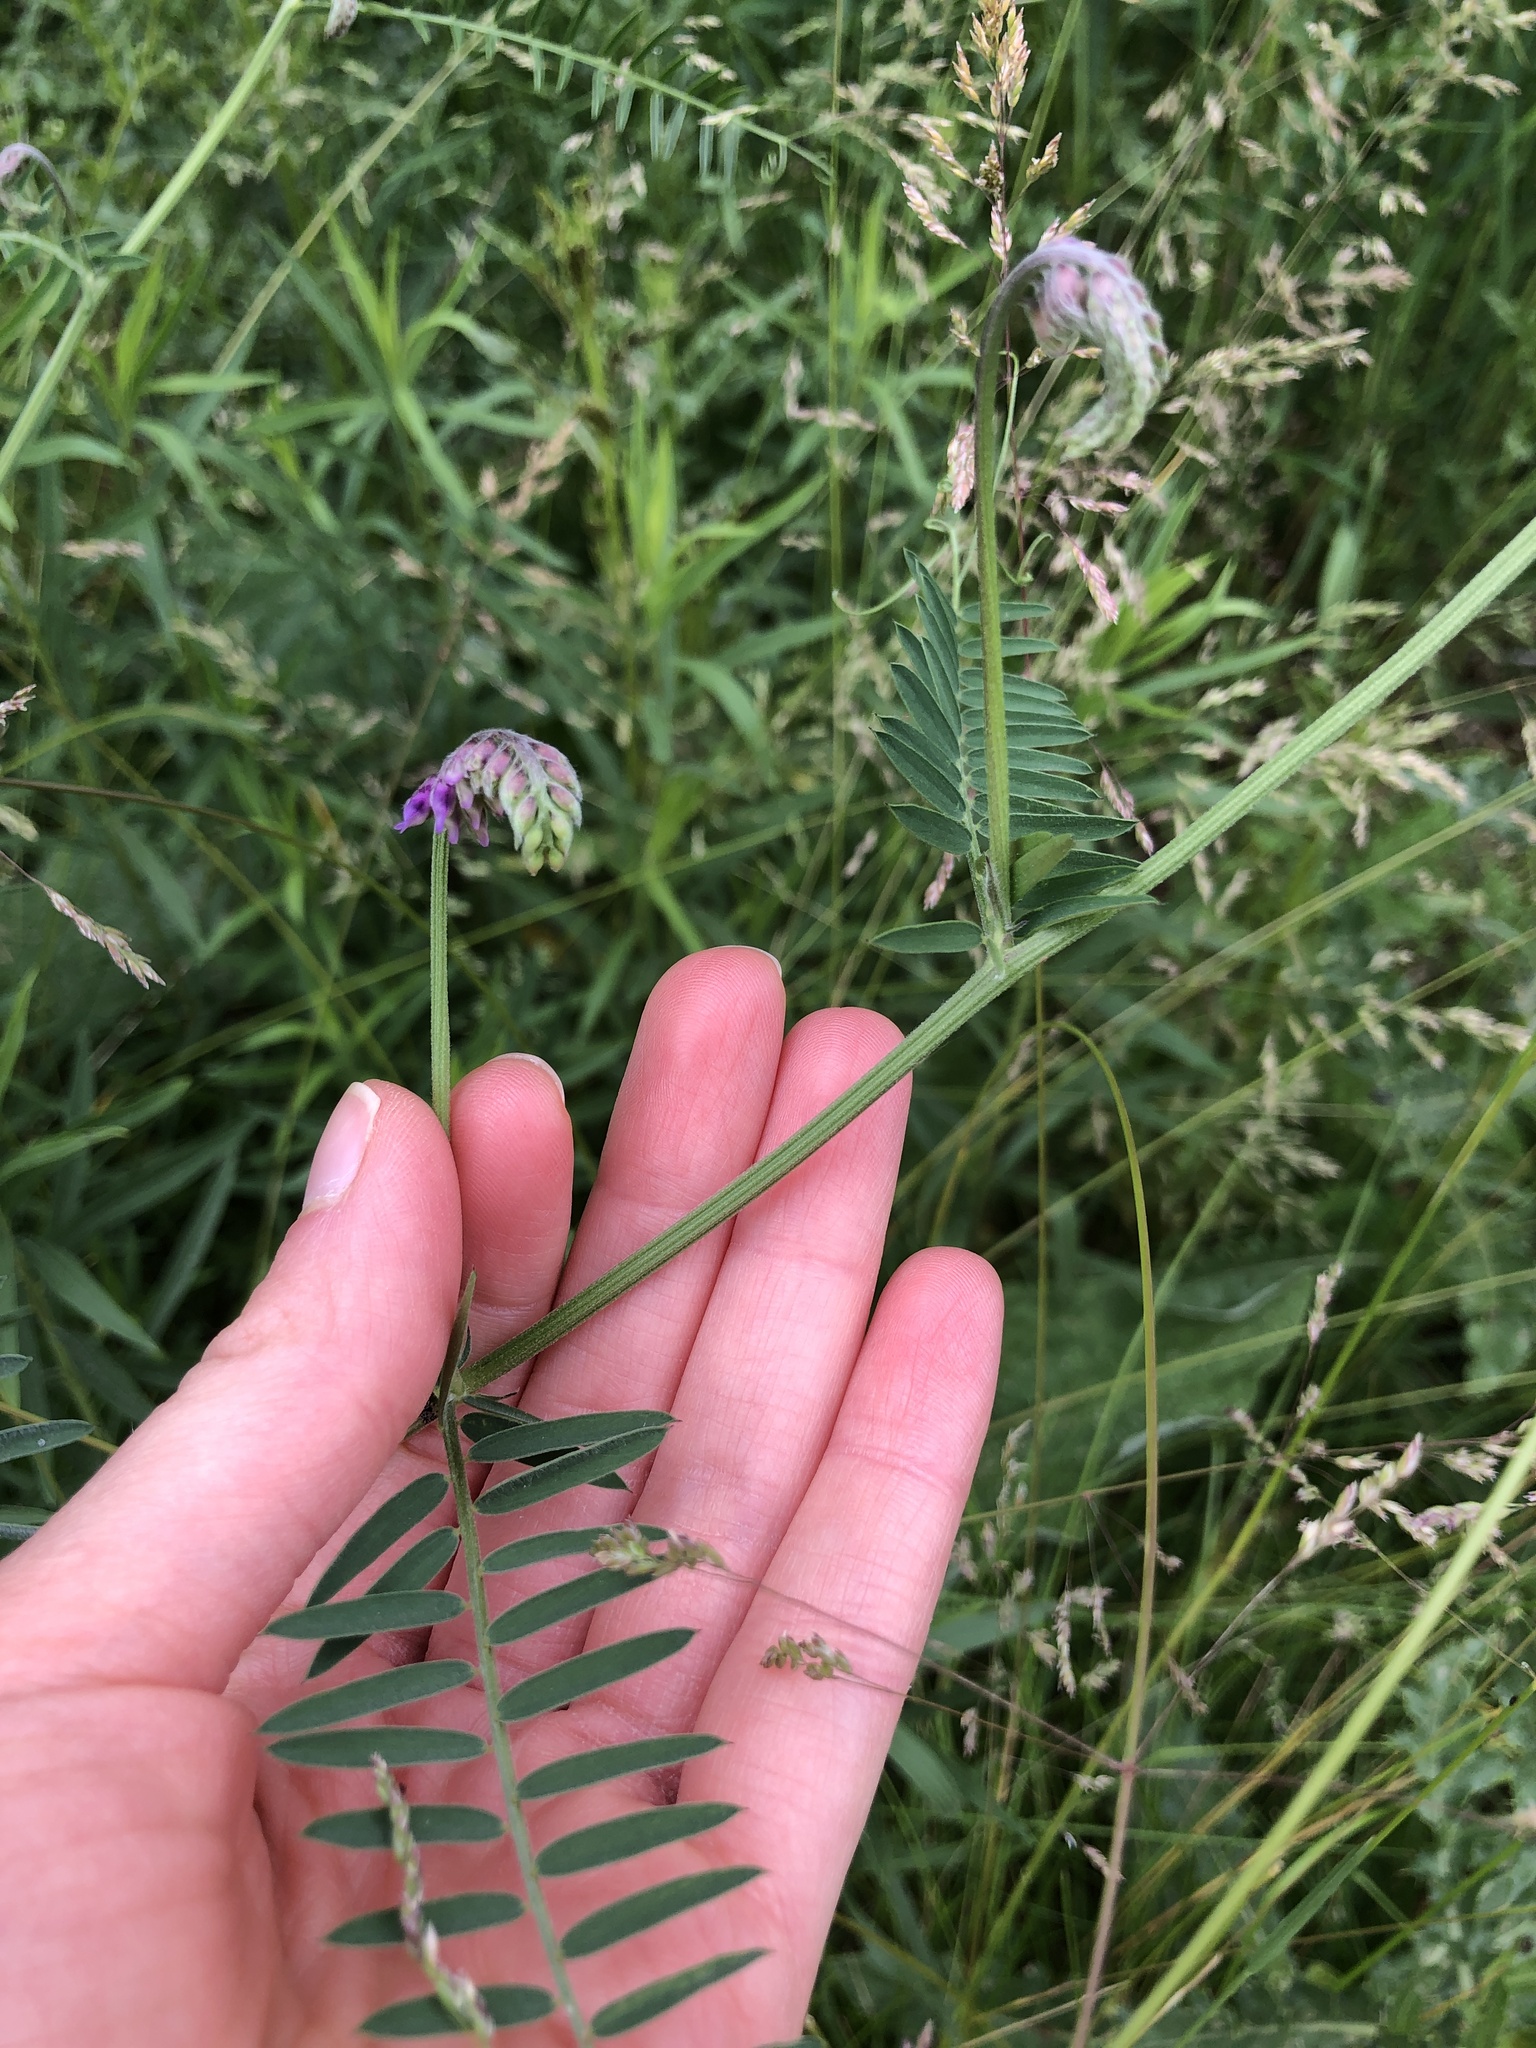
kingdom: Plantae
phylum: Tracheophyta
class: Magnoliopsida
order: Fabales
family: Fabaceae
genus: Vicia
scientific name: Vicia cracca
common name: Bird vetch
